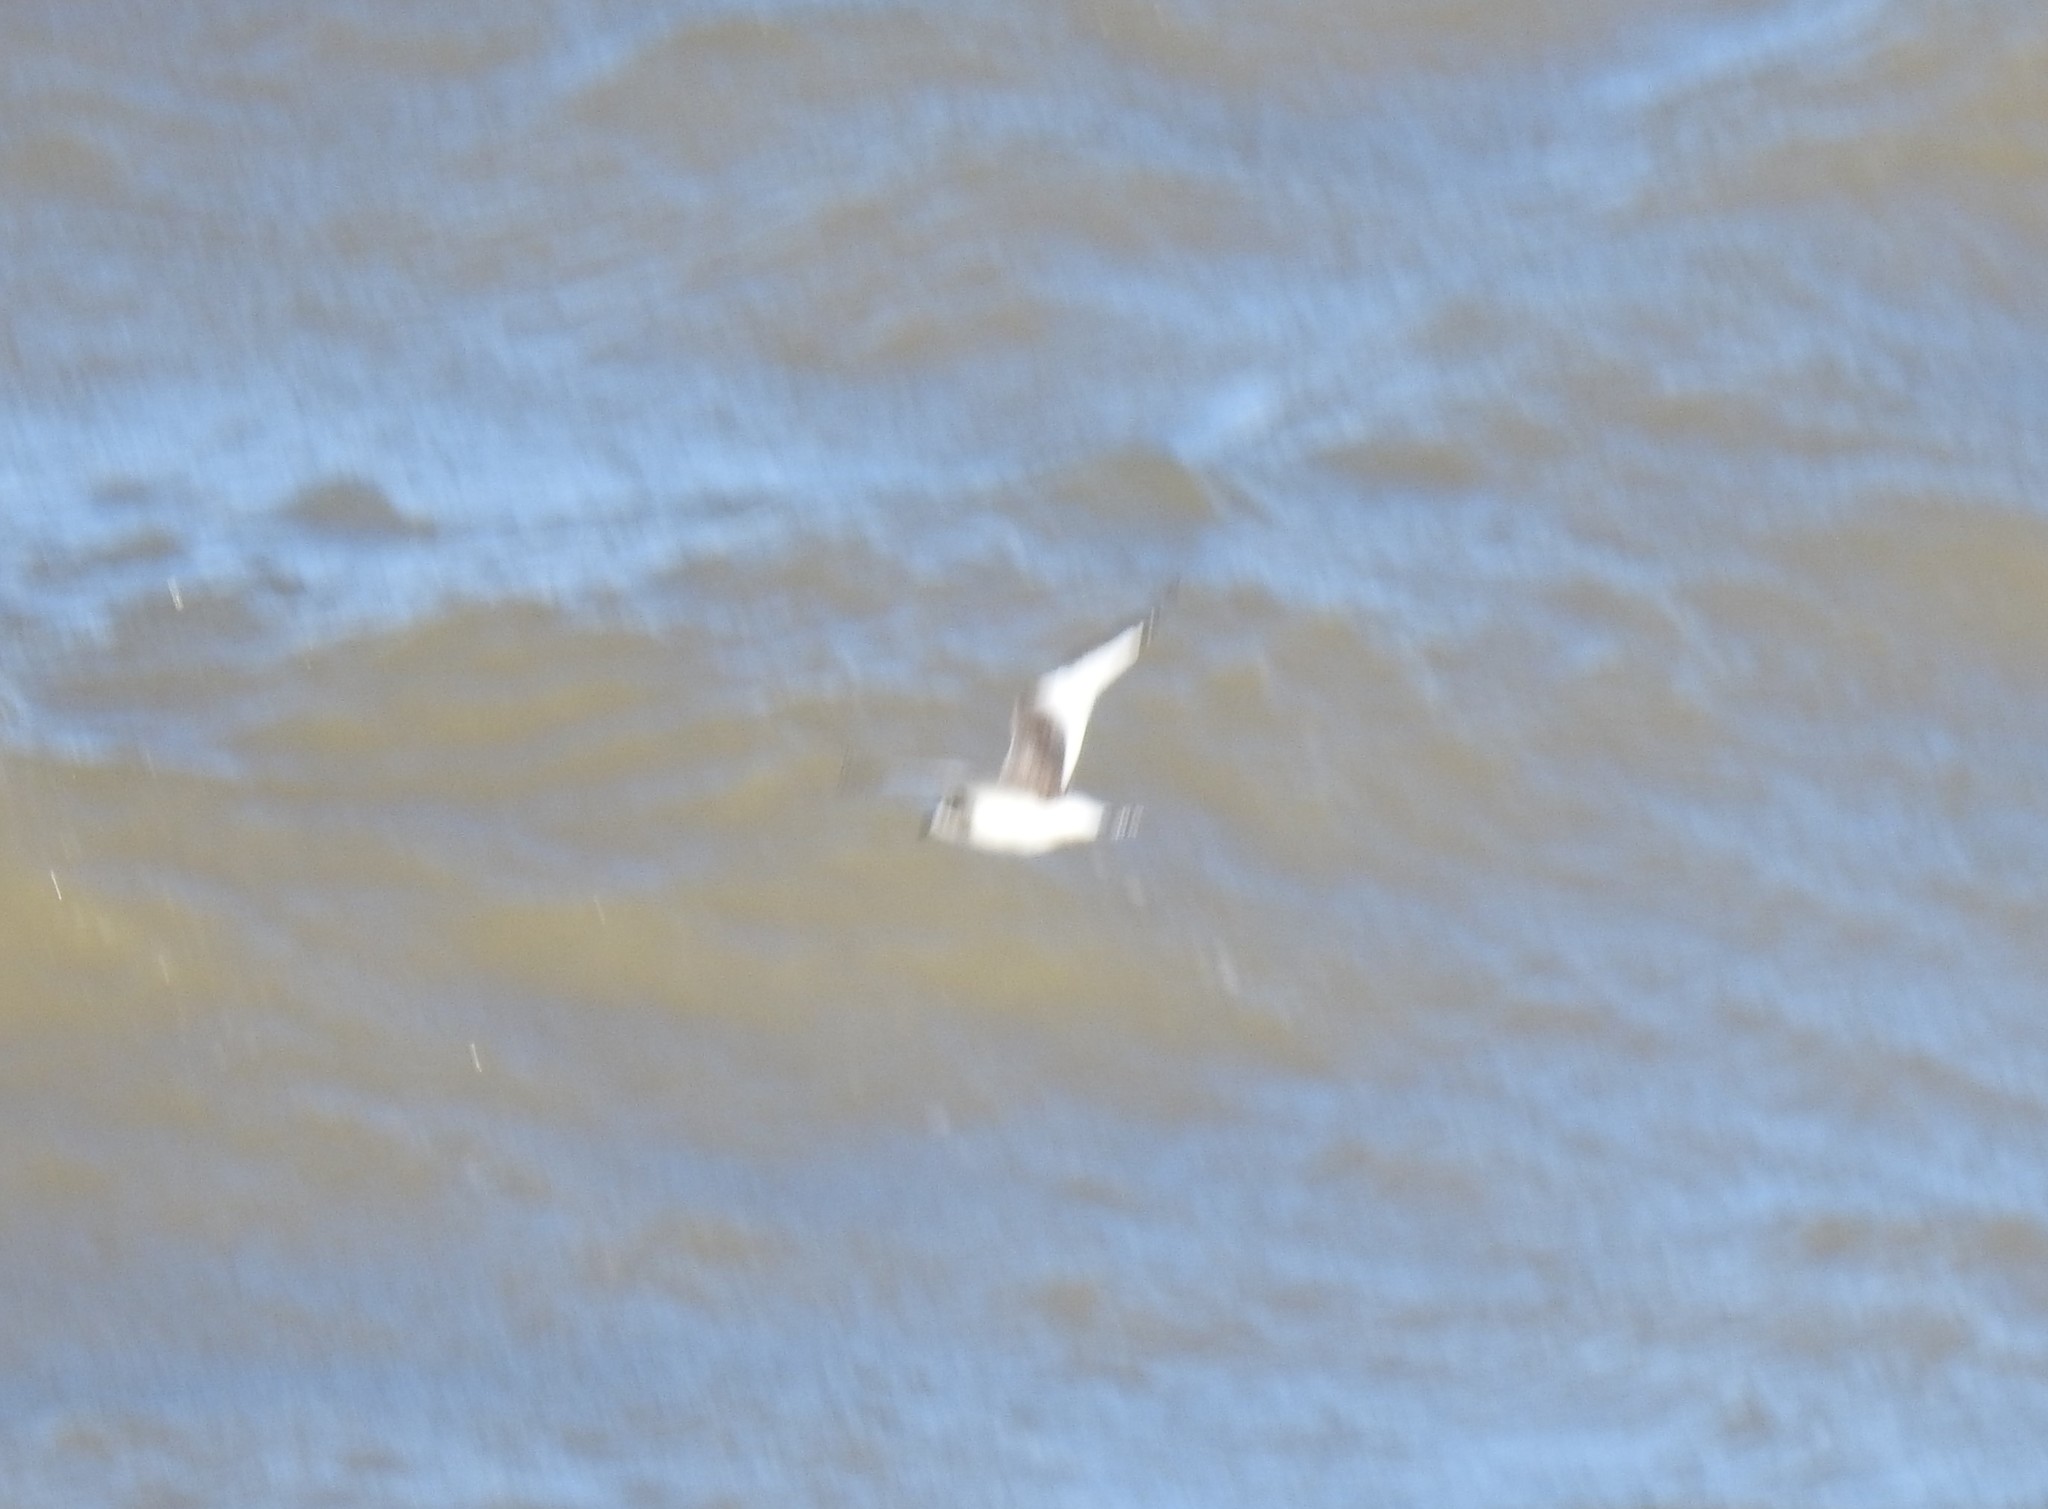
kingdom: Animalia
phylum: Chordata
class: Aves
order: Charadriiformes
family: Laridae
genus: Xema
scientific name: Xema sabini
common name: Sabine's gull
